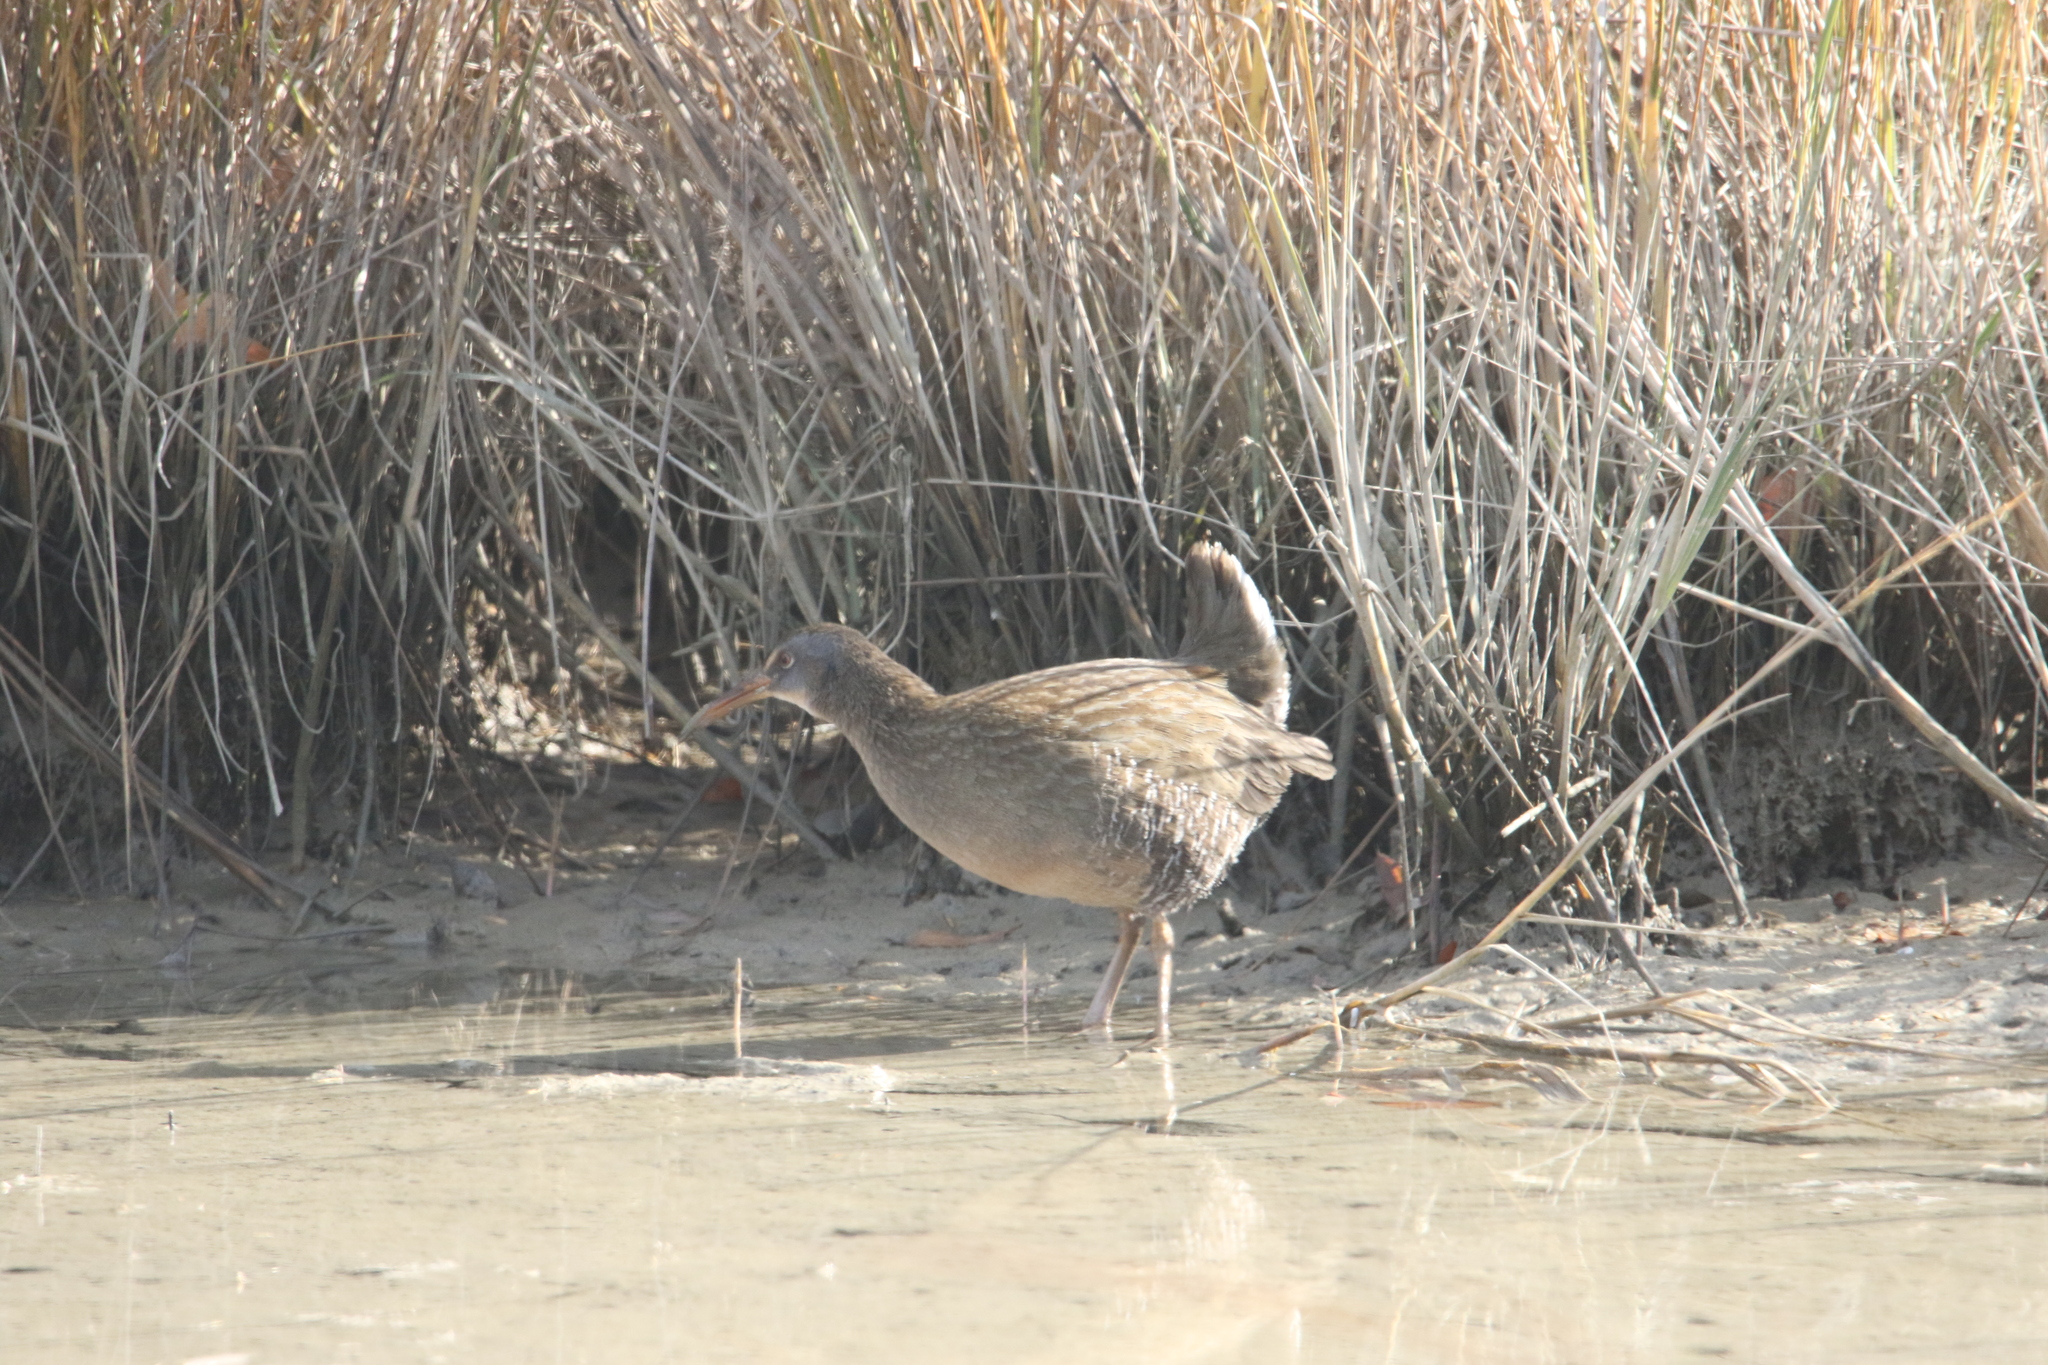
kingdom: Animalia
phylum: Chordata
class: Aves
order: Gruiformes
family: Rallidae
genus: Rallus
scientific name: Rallus crepitans
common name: Clapper rail
